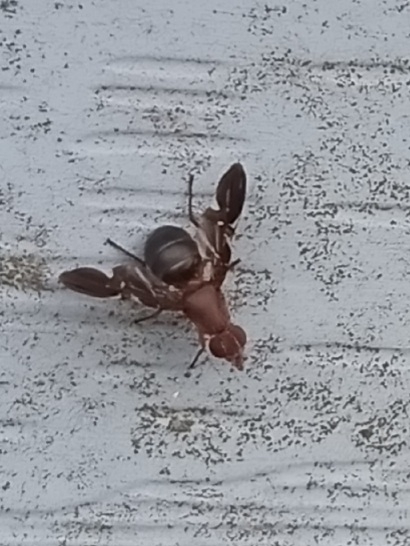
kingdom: Animalia
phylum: Arthropoda
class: Insecta
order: Diptera
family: Ulidiidae
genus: Delphinia
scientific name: Delphinia picta
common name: Common picture-winged fly
